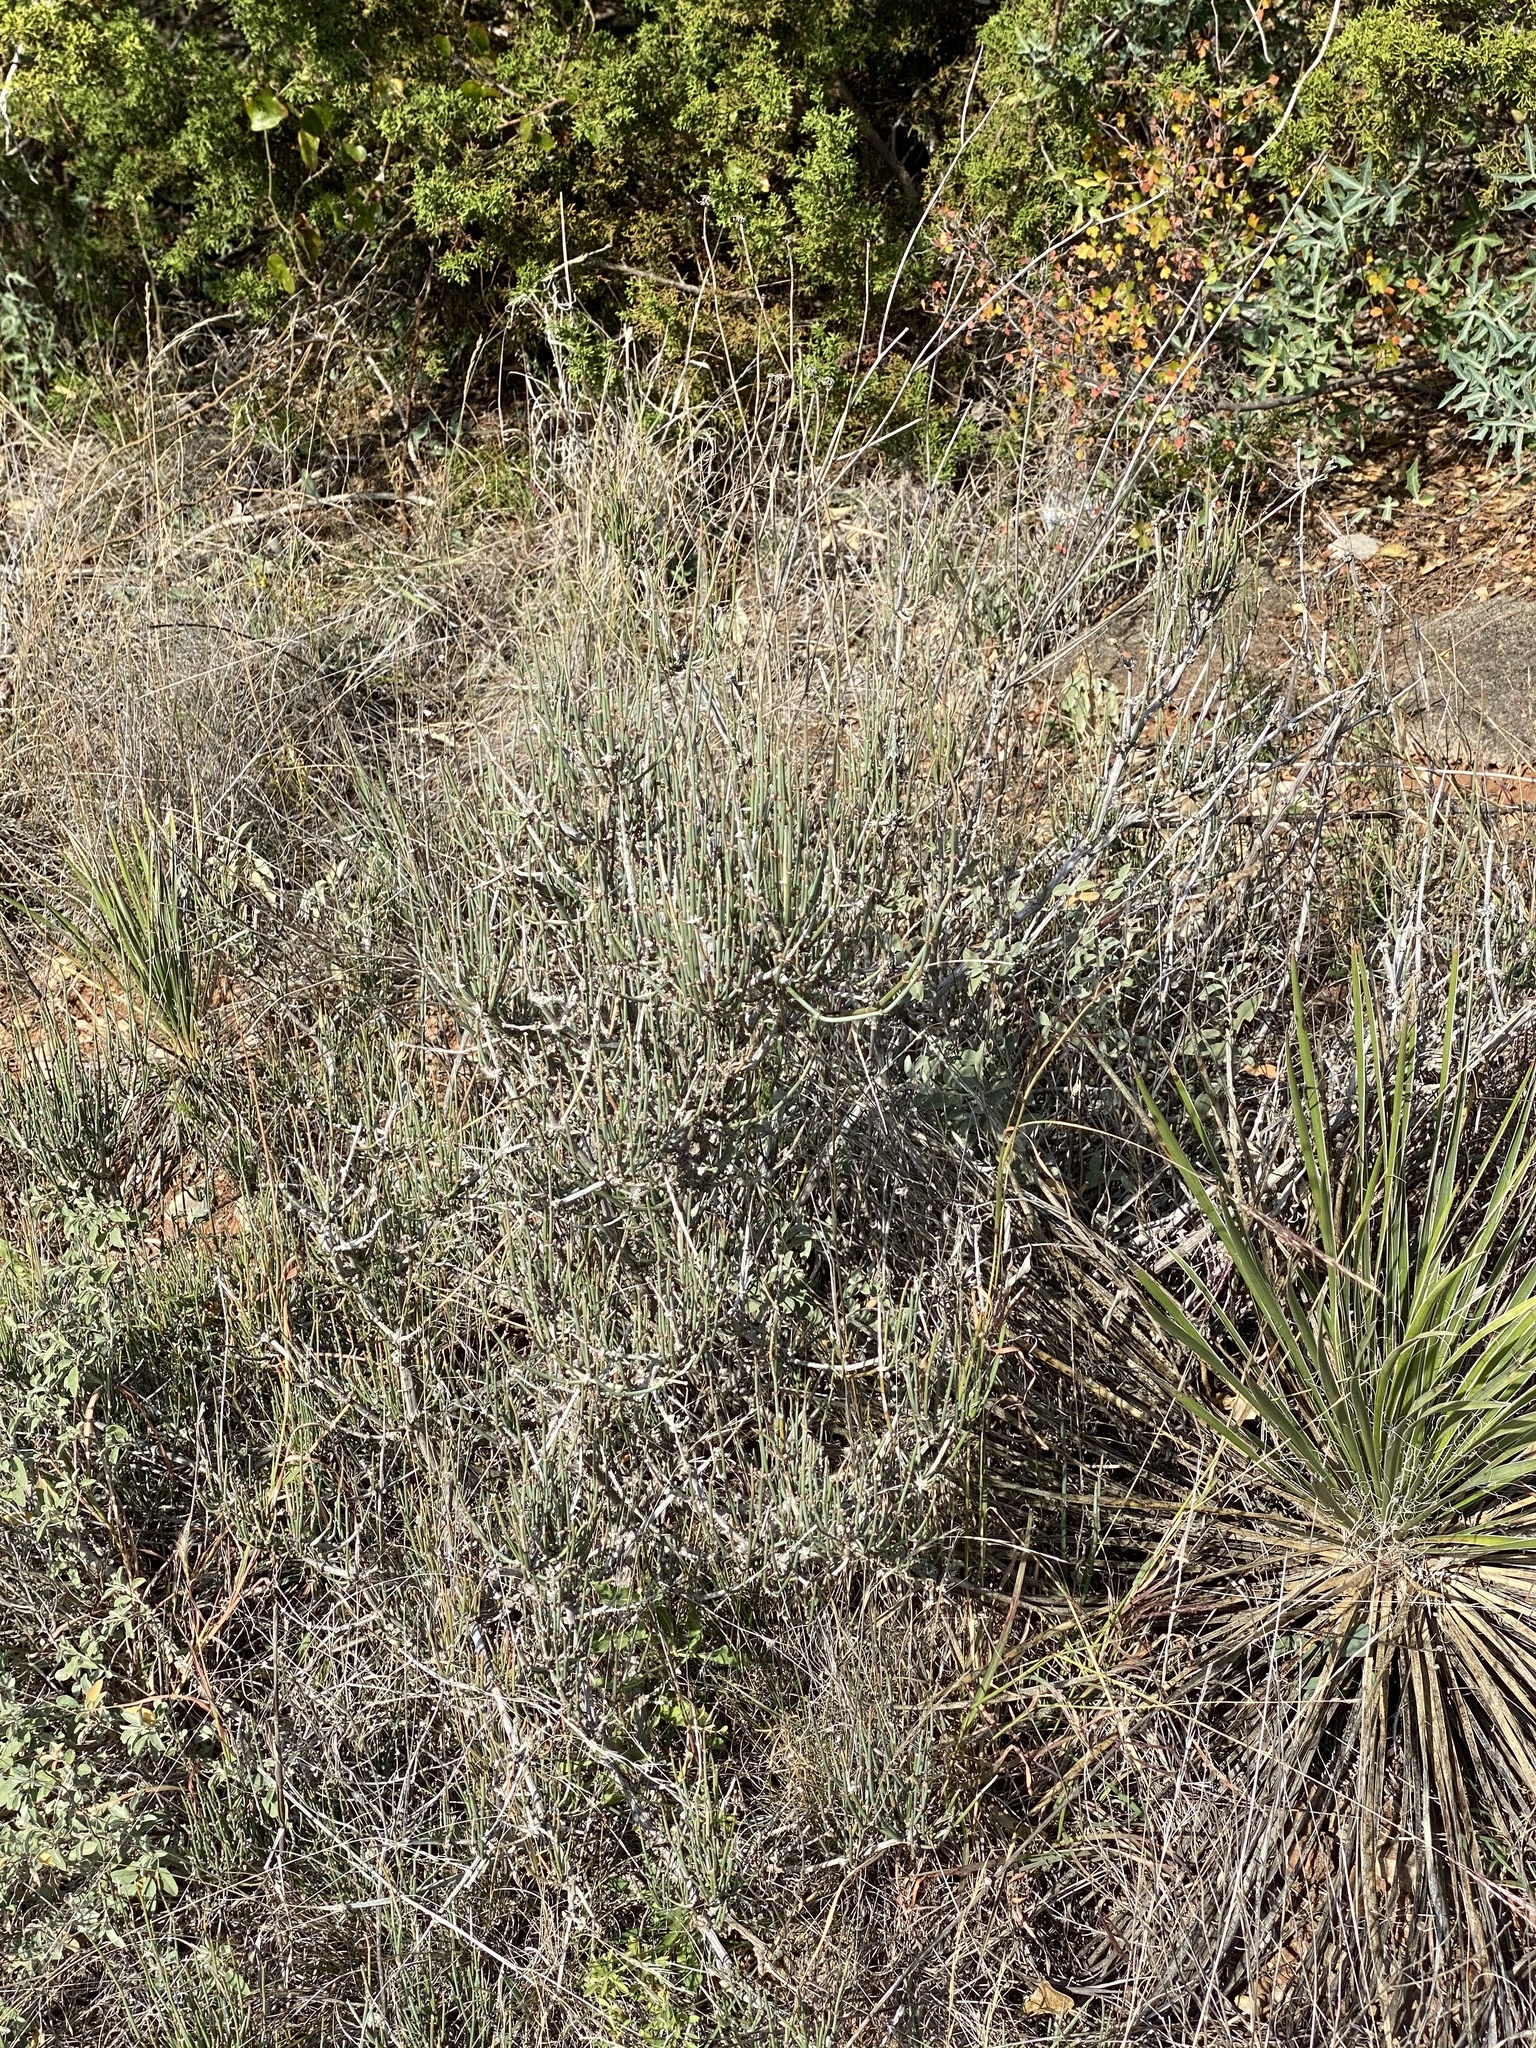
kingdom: Plantae
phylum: Tracheophyta
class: Gnetopsida
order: Ephedrales
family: Ephedraceae
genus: Ephedra
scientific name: Ephedra antisyphilitica
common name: Clipweed
